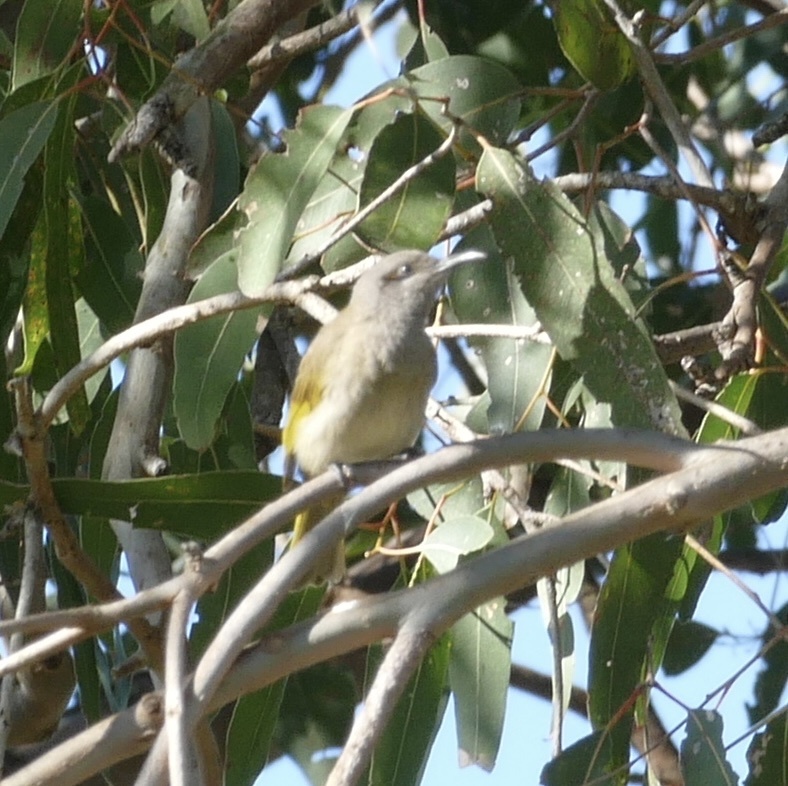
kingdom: Animalia
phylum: Chordata
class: Aves
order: Passeriformes
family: Meliphagidae
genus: Lichmera
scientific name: Lichmera indistincta
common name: Brown honeyeater
